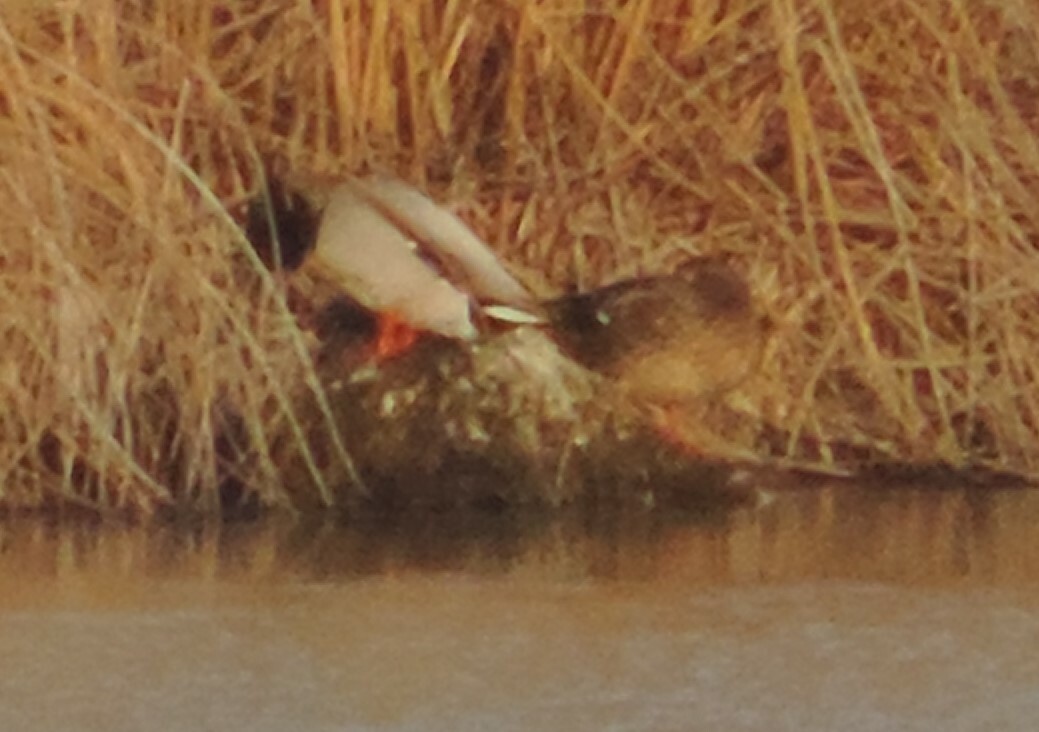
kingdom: Animalia
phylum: Chordata
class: Aves
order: Anseriformes
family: Anatidae
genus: Anas
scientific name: Anas platyrhynchos
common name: Mallard
